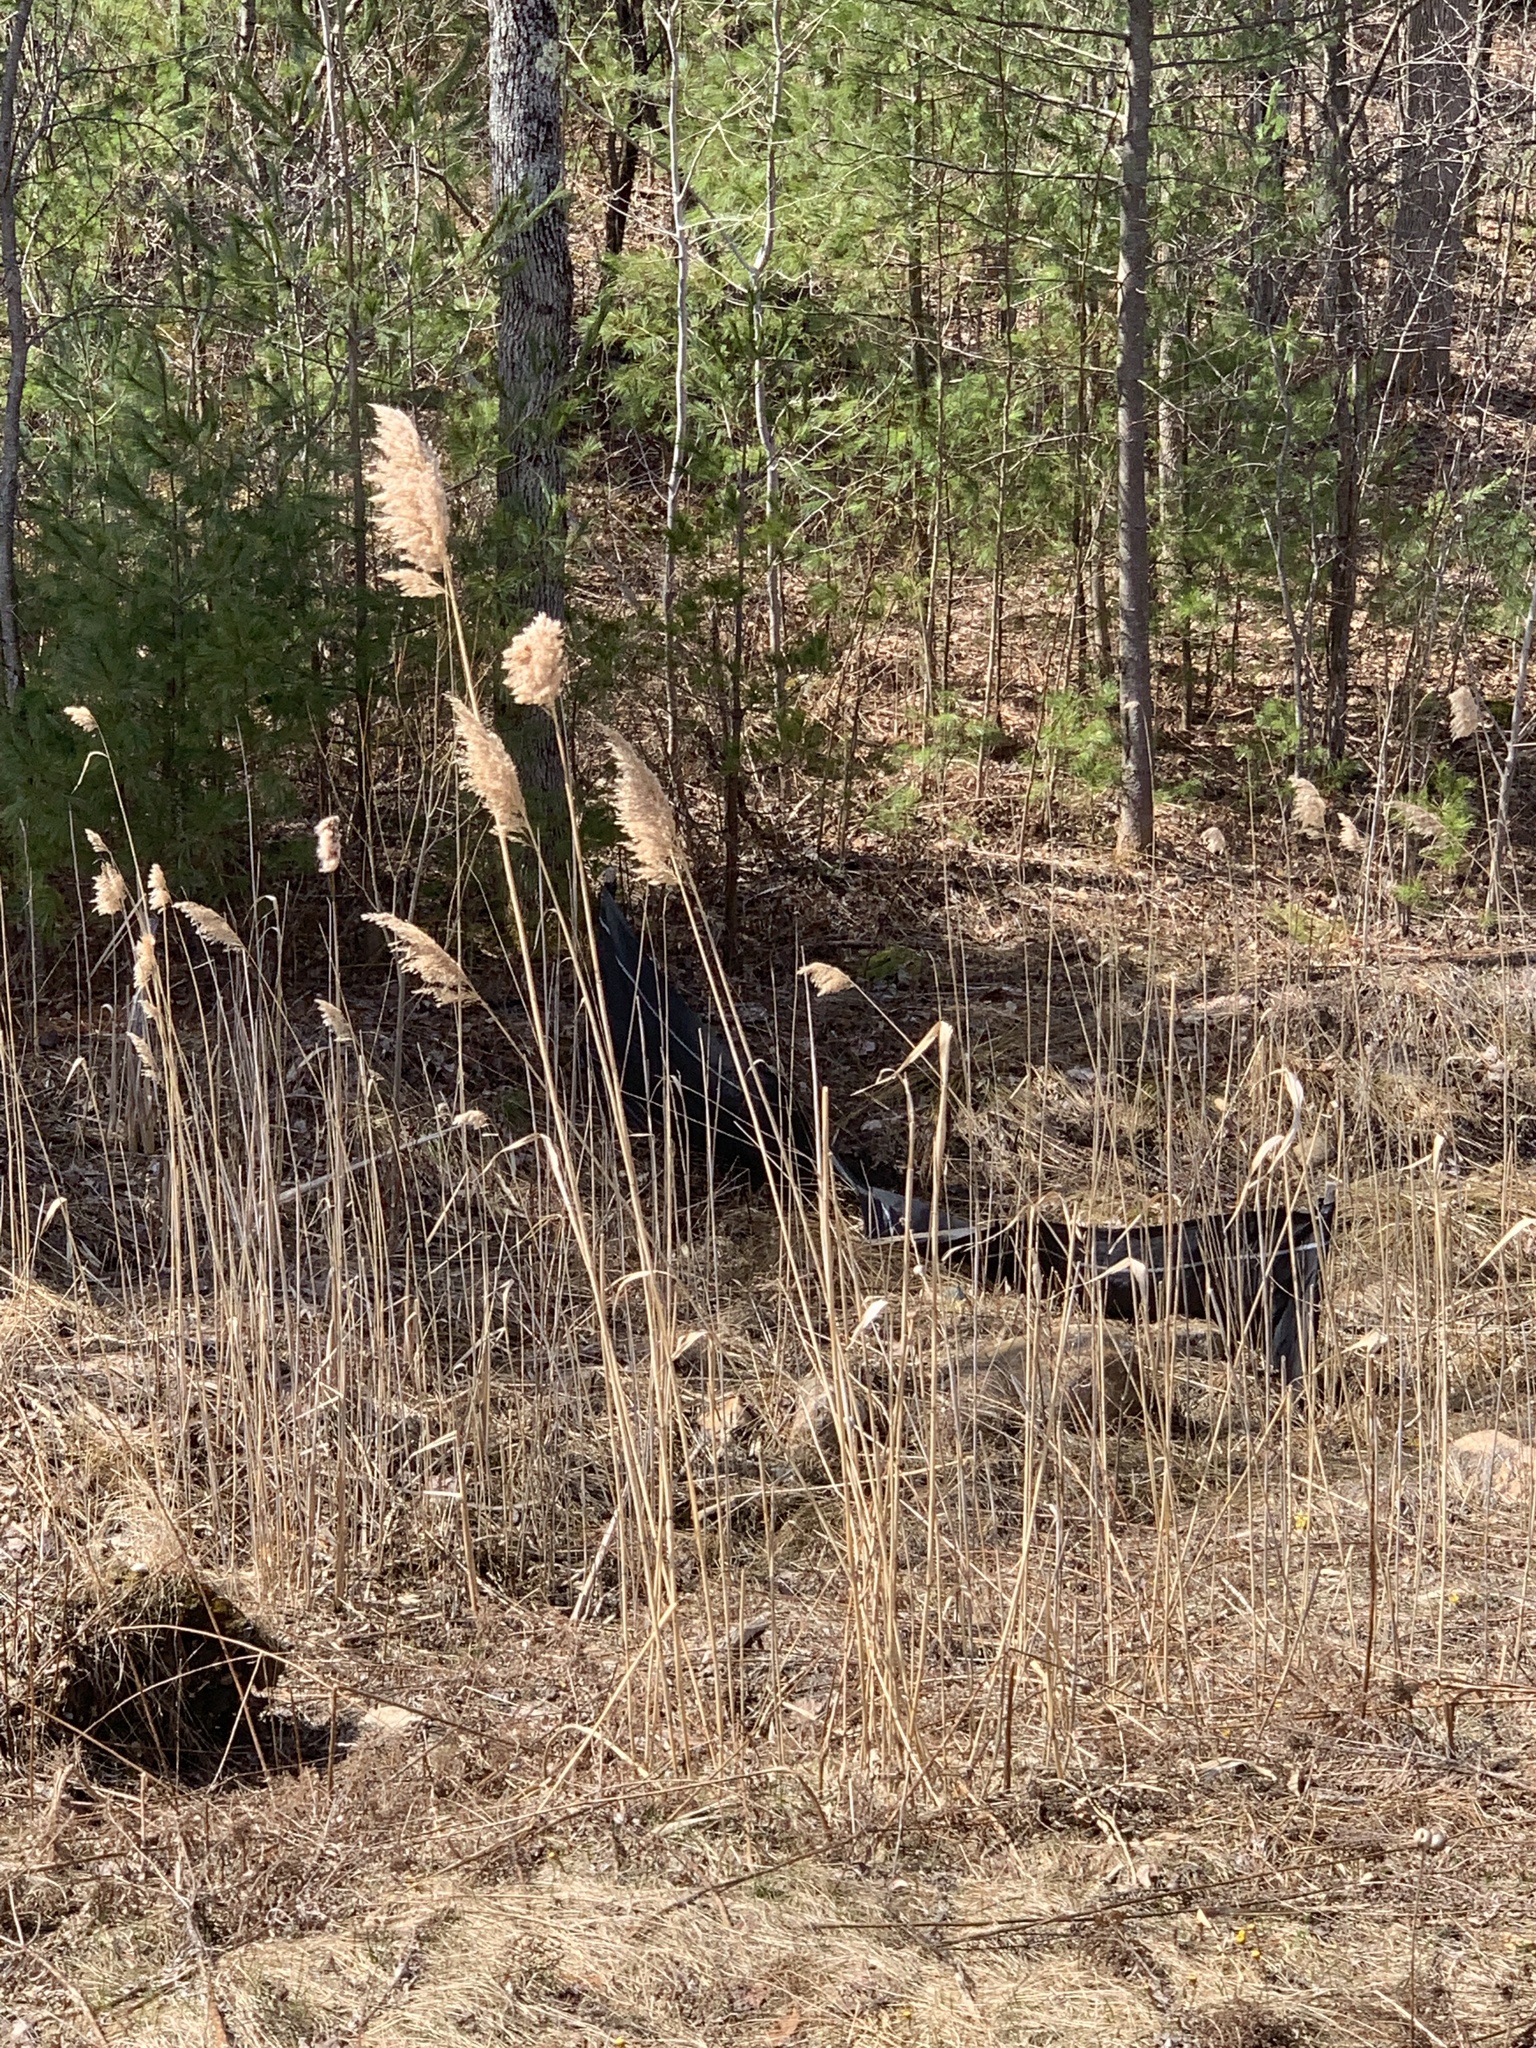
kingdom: Plantae
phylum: Tracheophyta
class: Liliopsida
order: Poales
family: Poaceae
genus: Phragmites
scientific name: Phragmites australis
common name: Common reed
